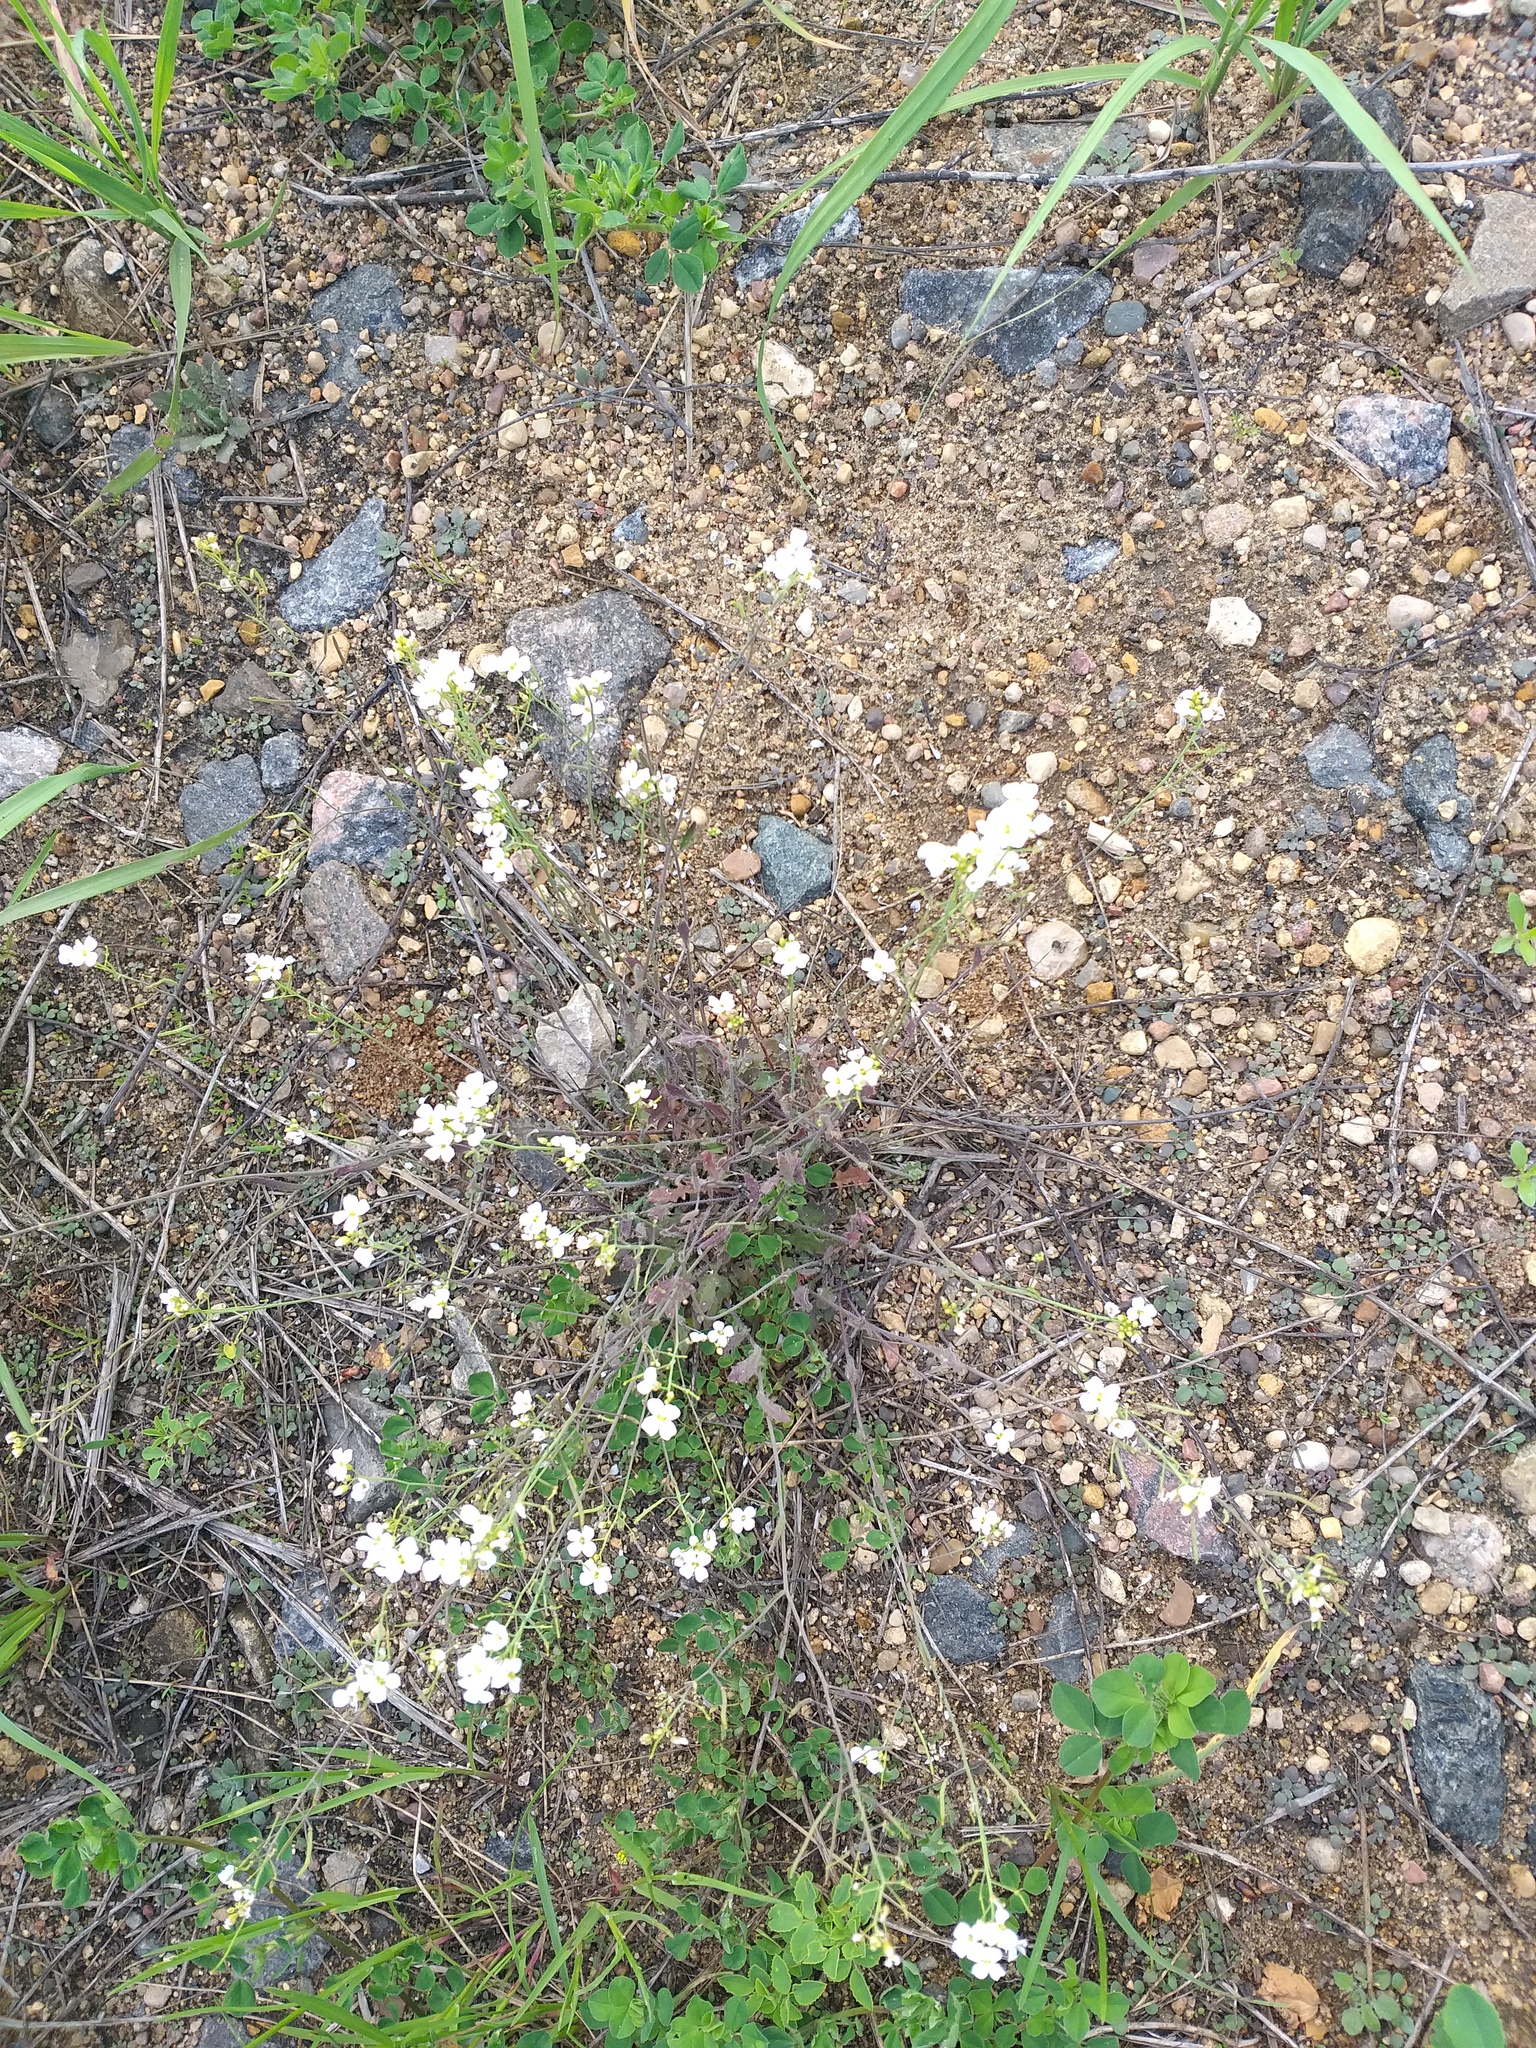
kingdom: Plantae
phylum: Tracheophyta
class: Magnoliopsida
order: Brassicales
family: Brassicaceae
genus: Arabidopsis
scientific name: Arabidopsis arenosa
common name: Sand rock-cress
